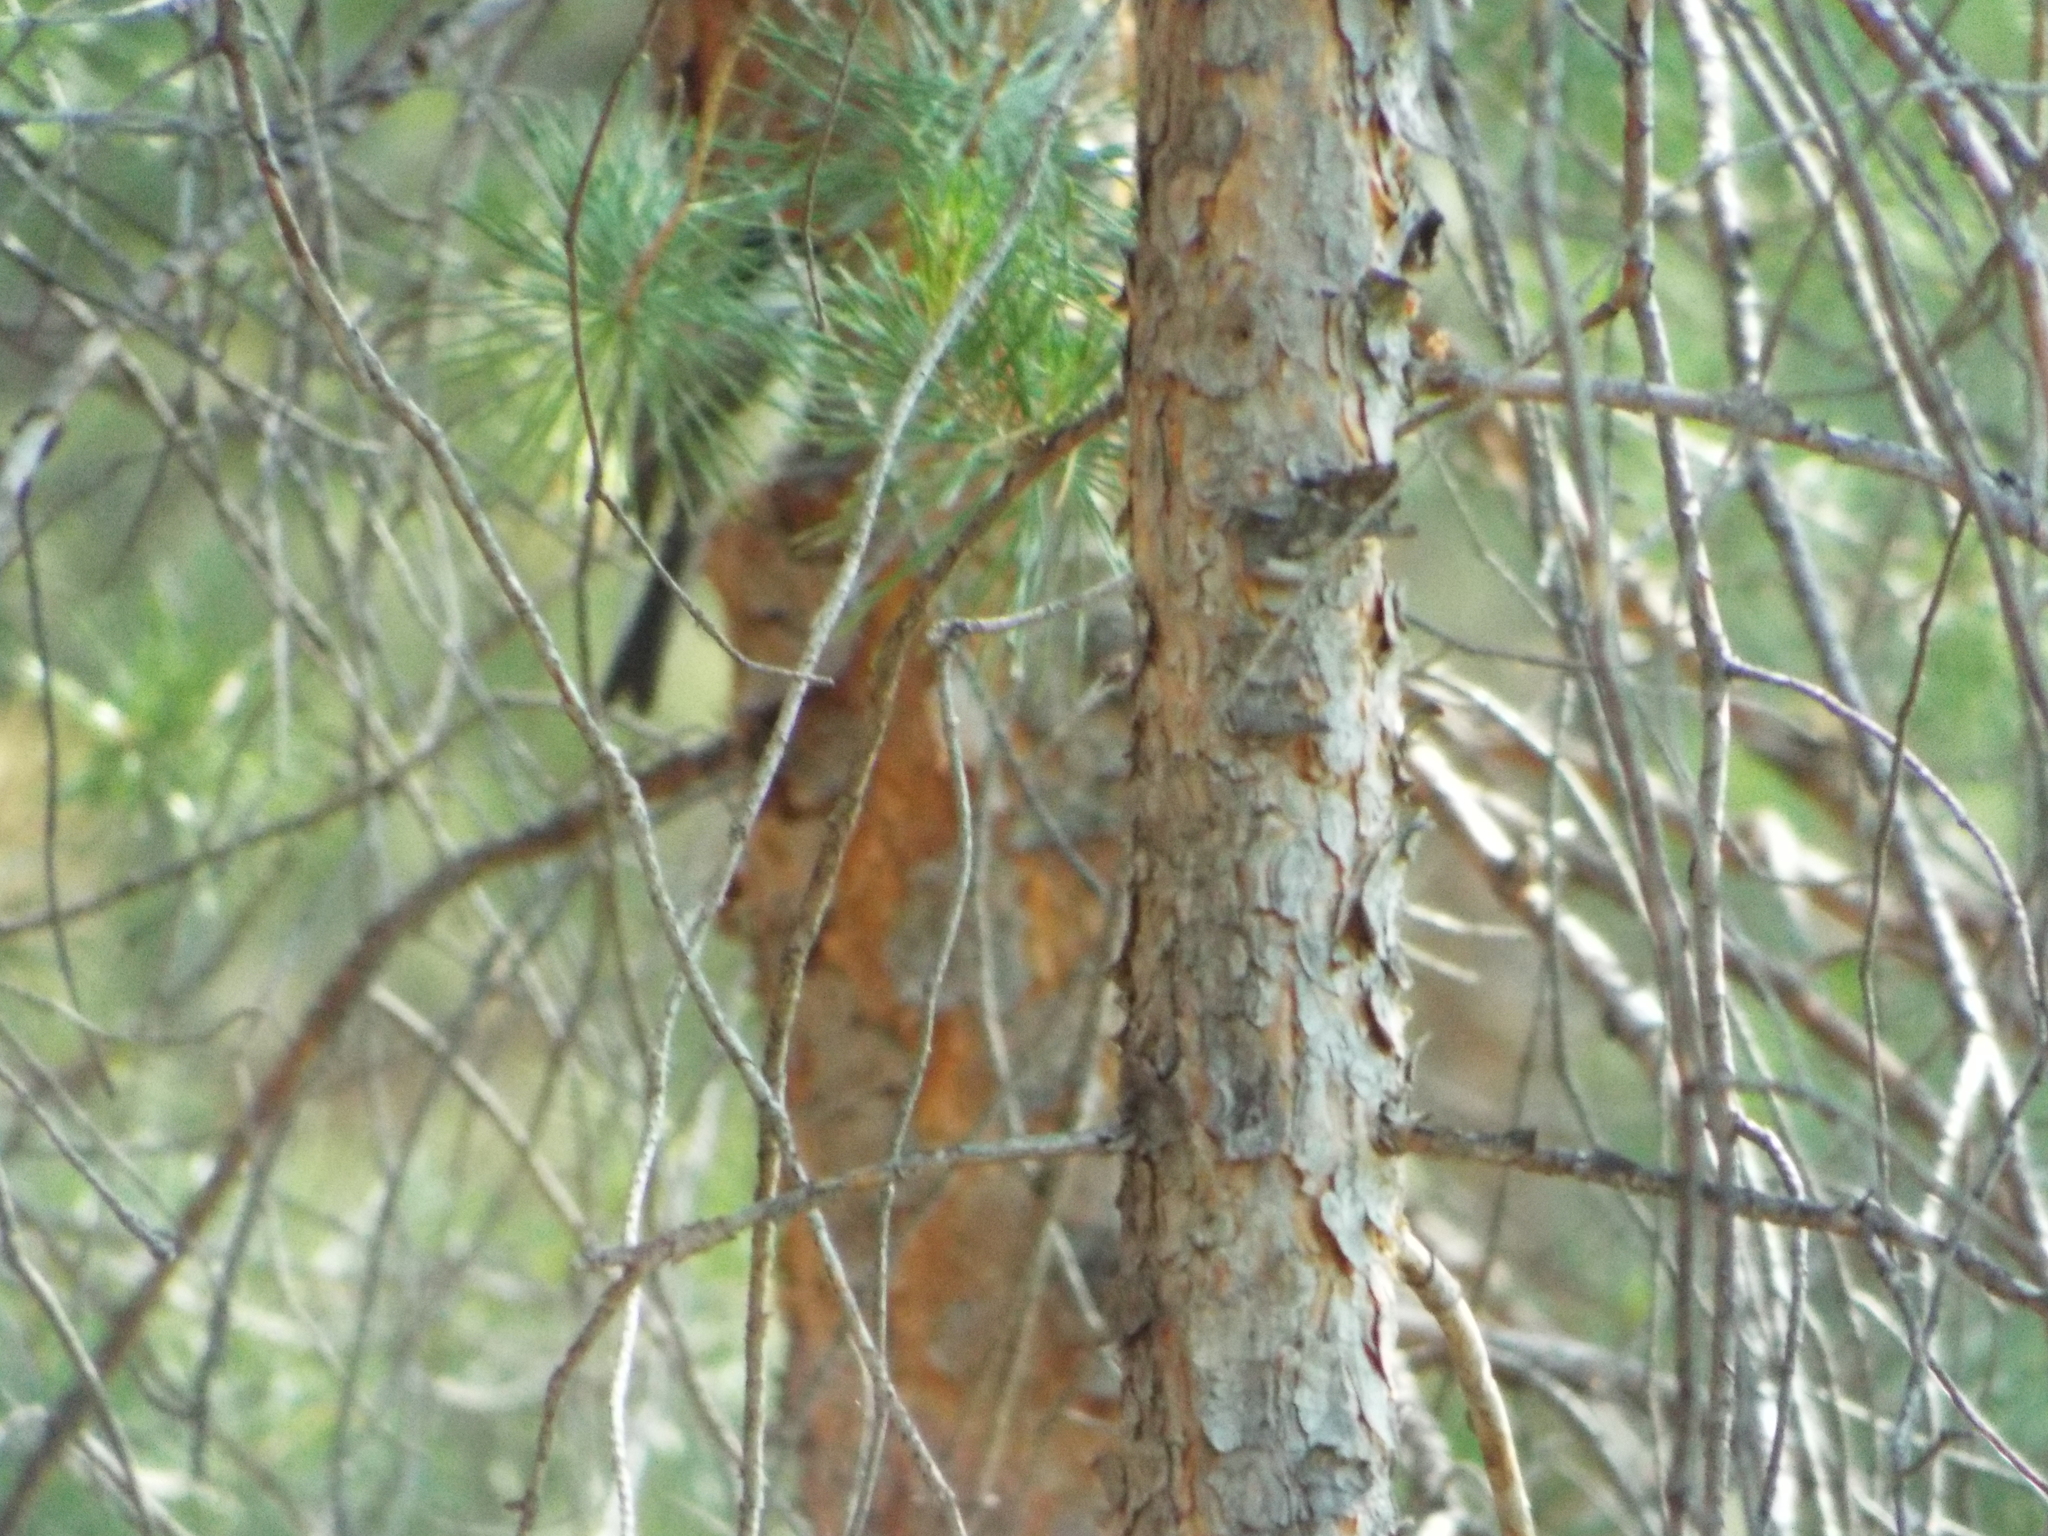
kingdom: Animalia
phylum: Chordata
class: Aves
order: Passeriformes
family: Paridae
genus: Poecile
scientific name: Poecile montanus
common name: Willow tit
